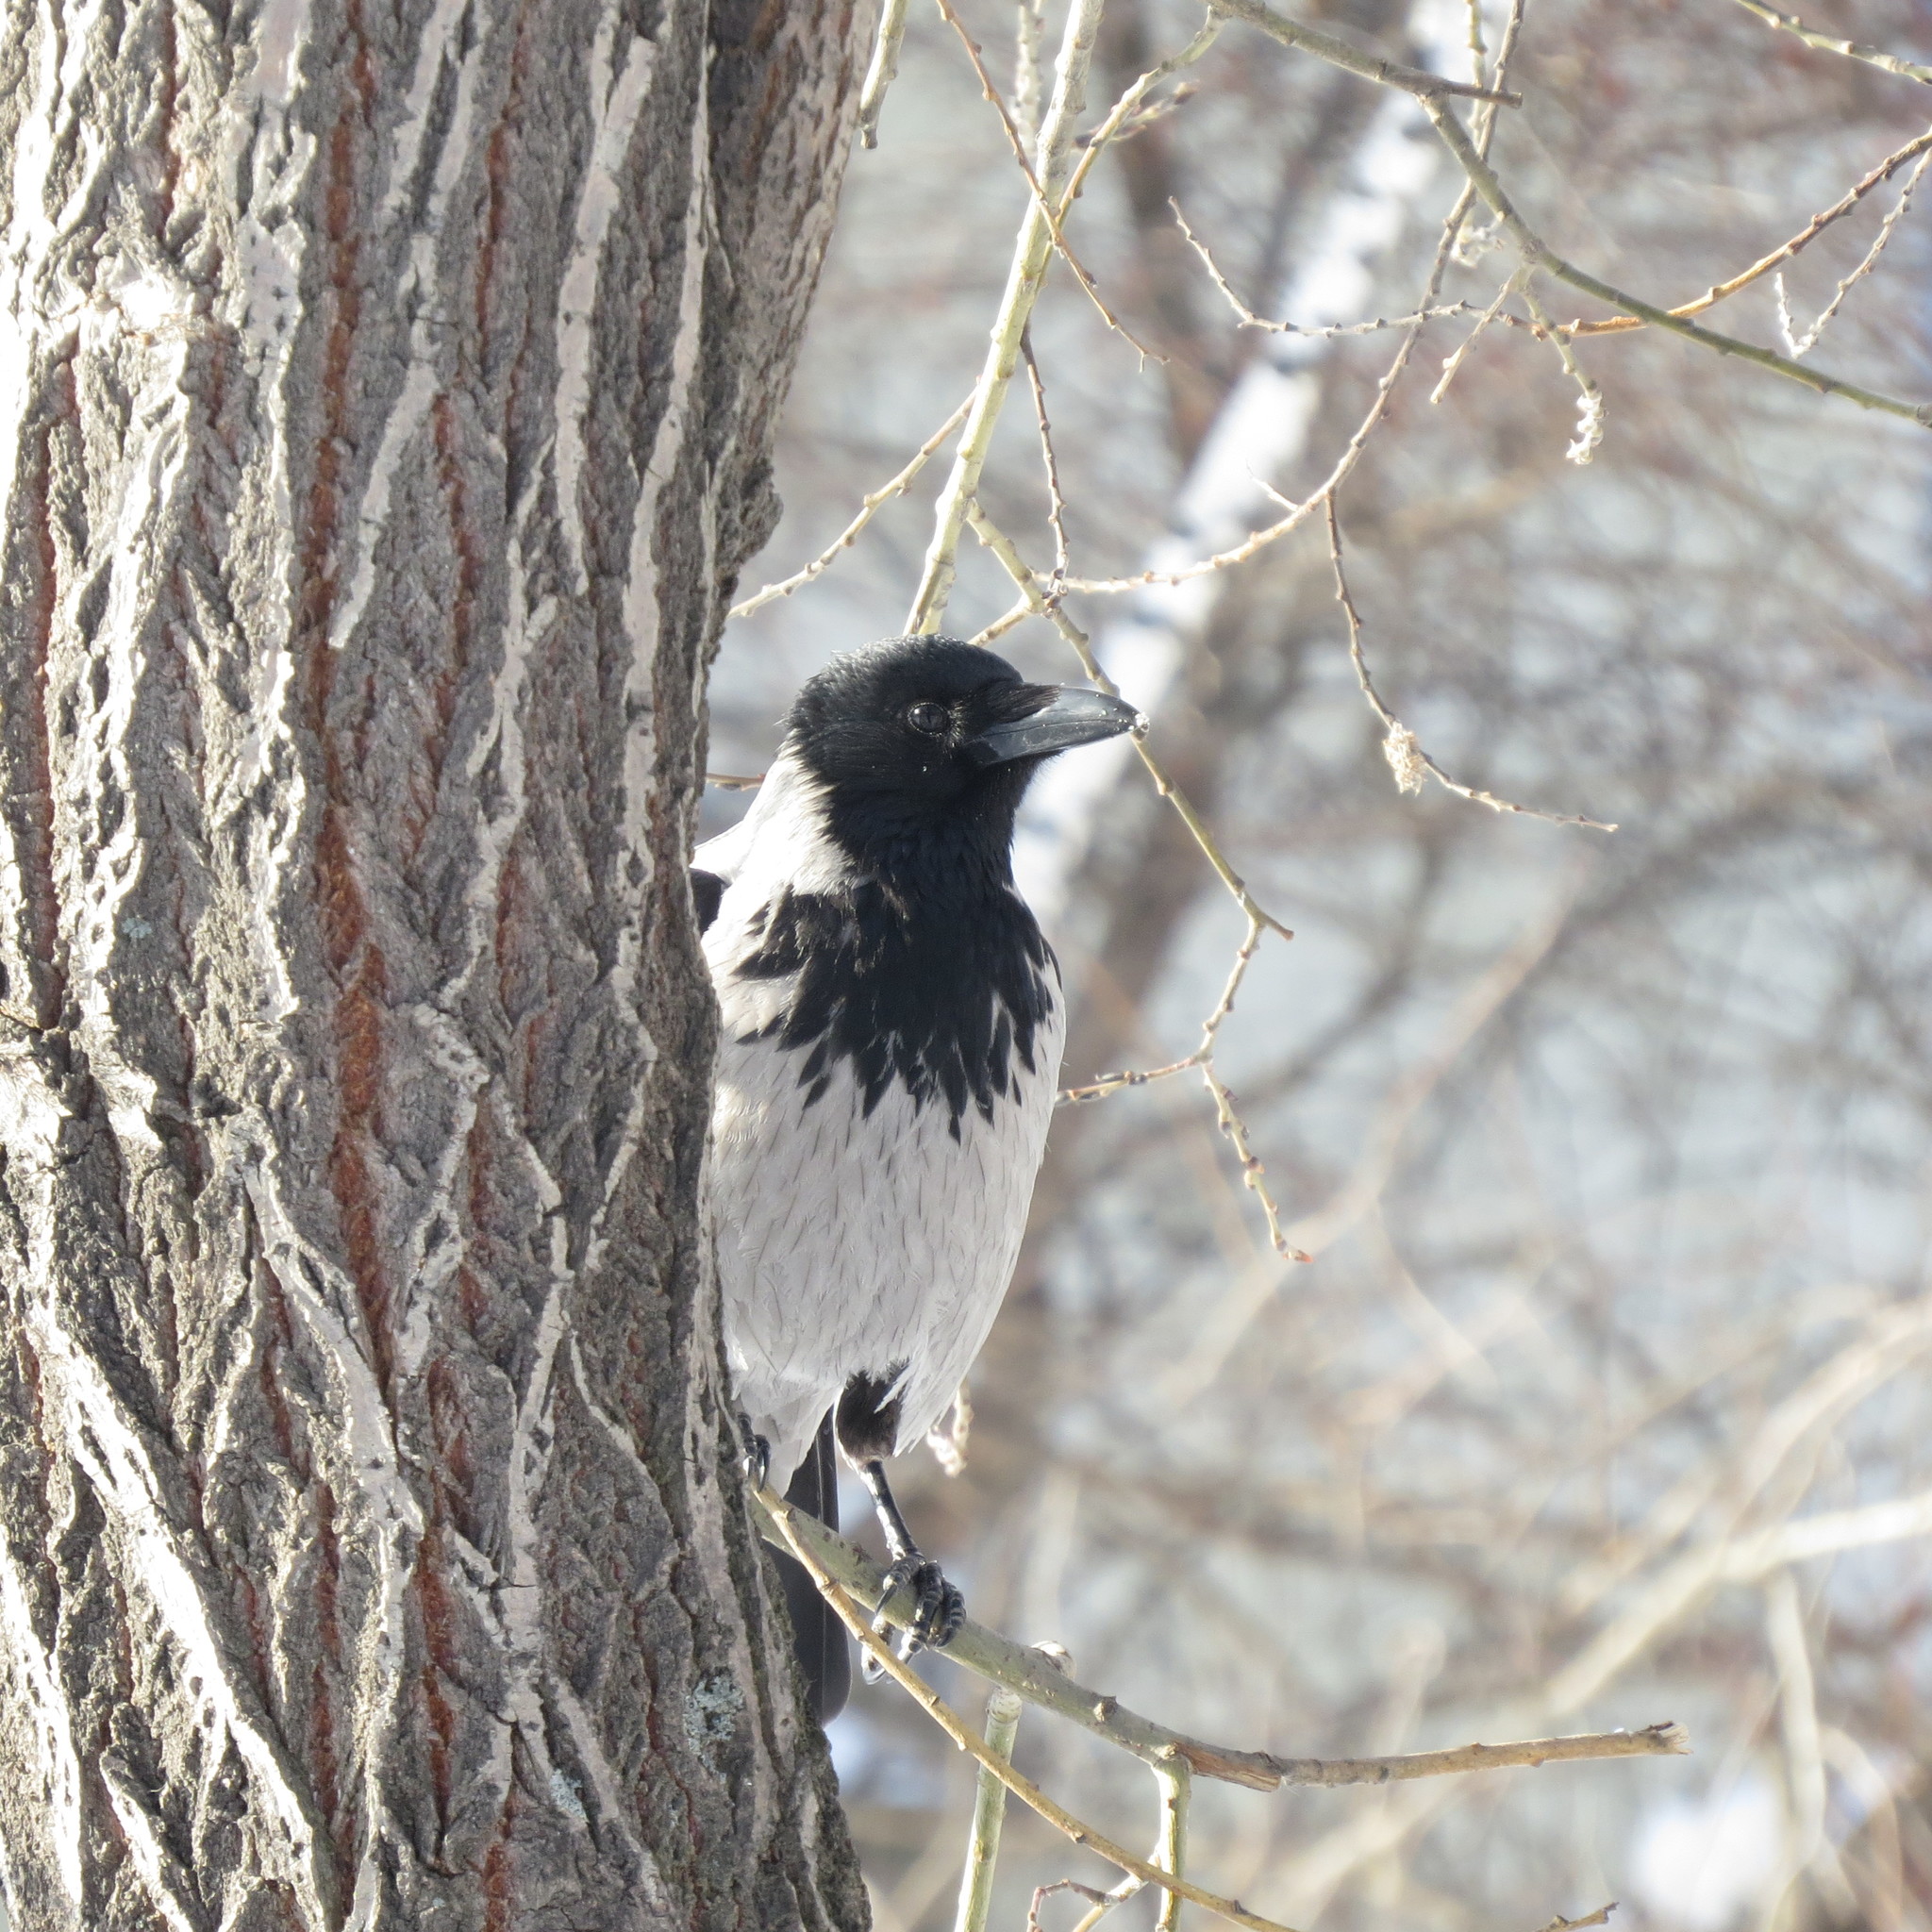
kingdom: Animalia
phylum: Chordata
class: Aves
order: Passeriformes
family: Corvidae
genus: Corvus
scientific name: Corvus cornix
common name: Hooded crow
